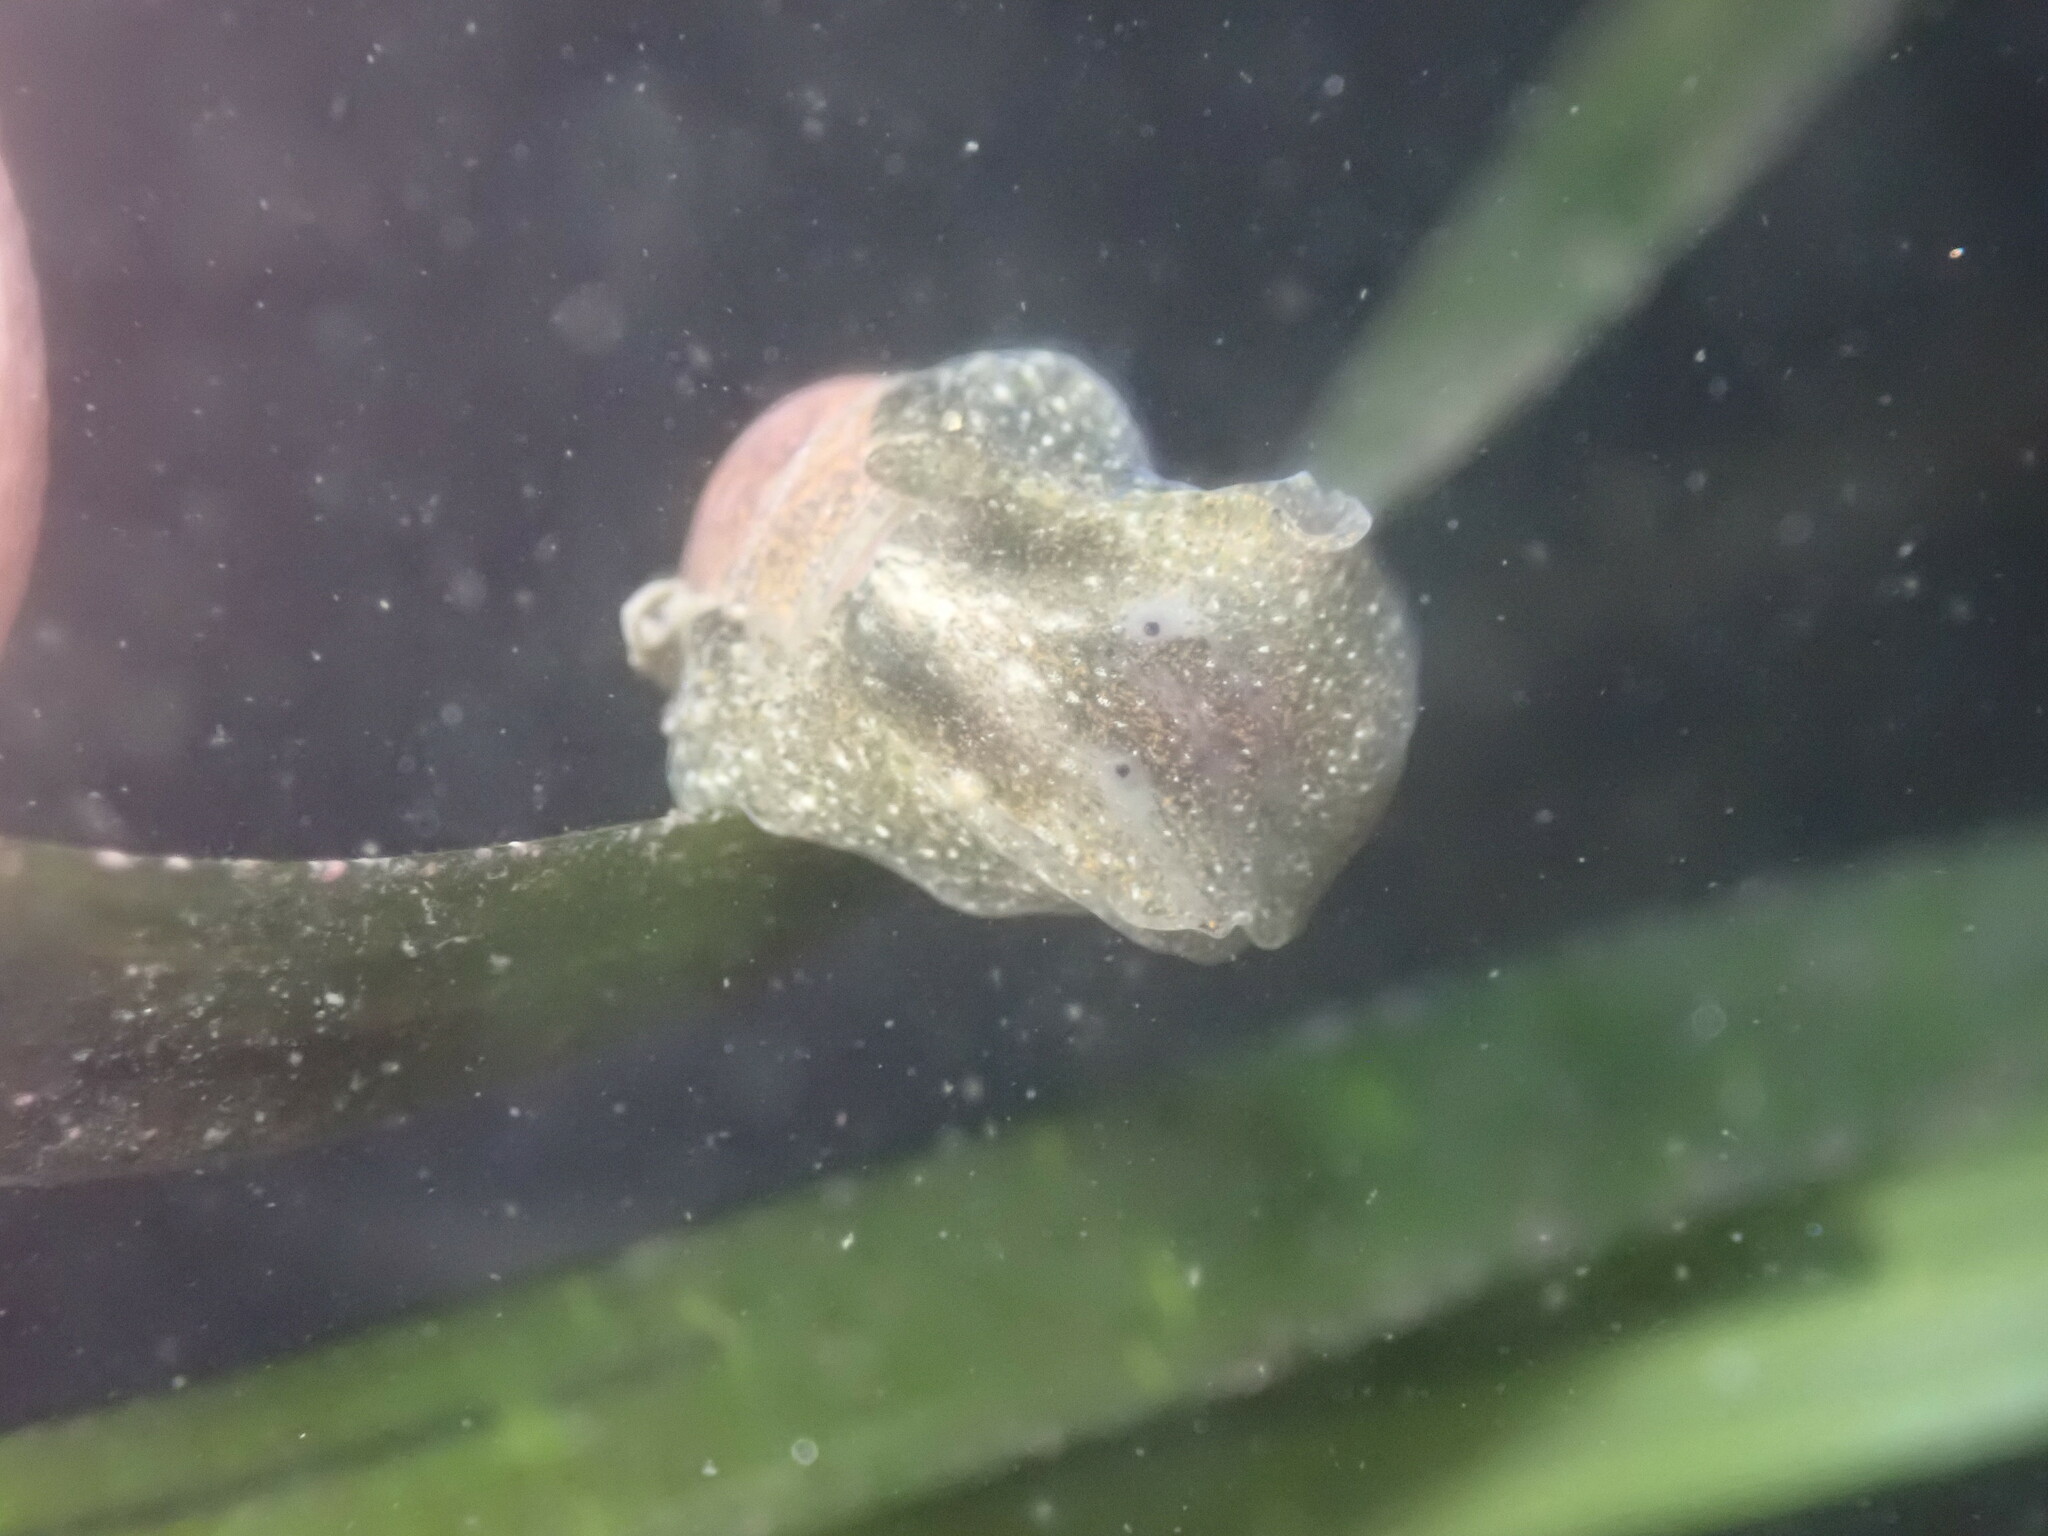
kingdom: Animalia
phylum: Mollusca
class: Gastropoda
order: Cephalaspidea
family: Haminoeidae
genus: Haminoea
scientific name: Haminoea virescens
